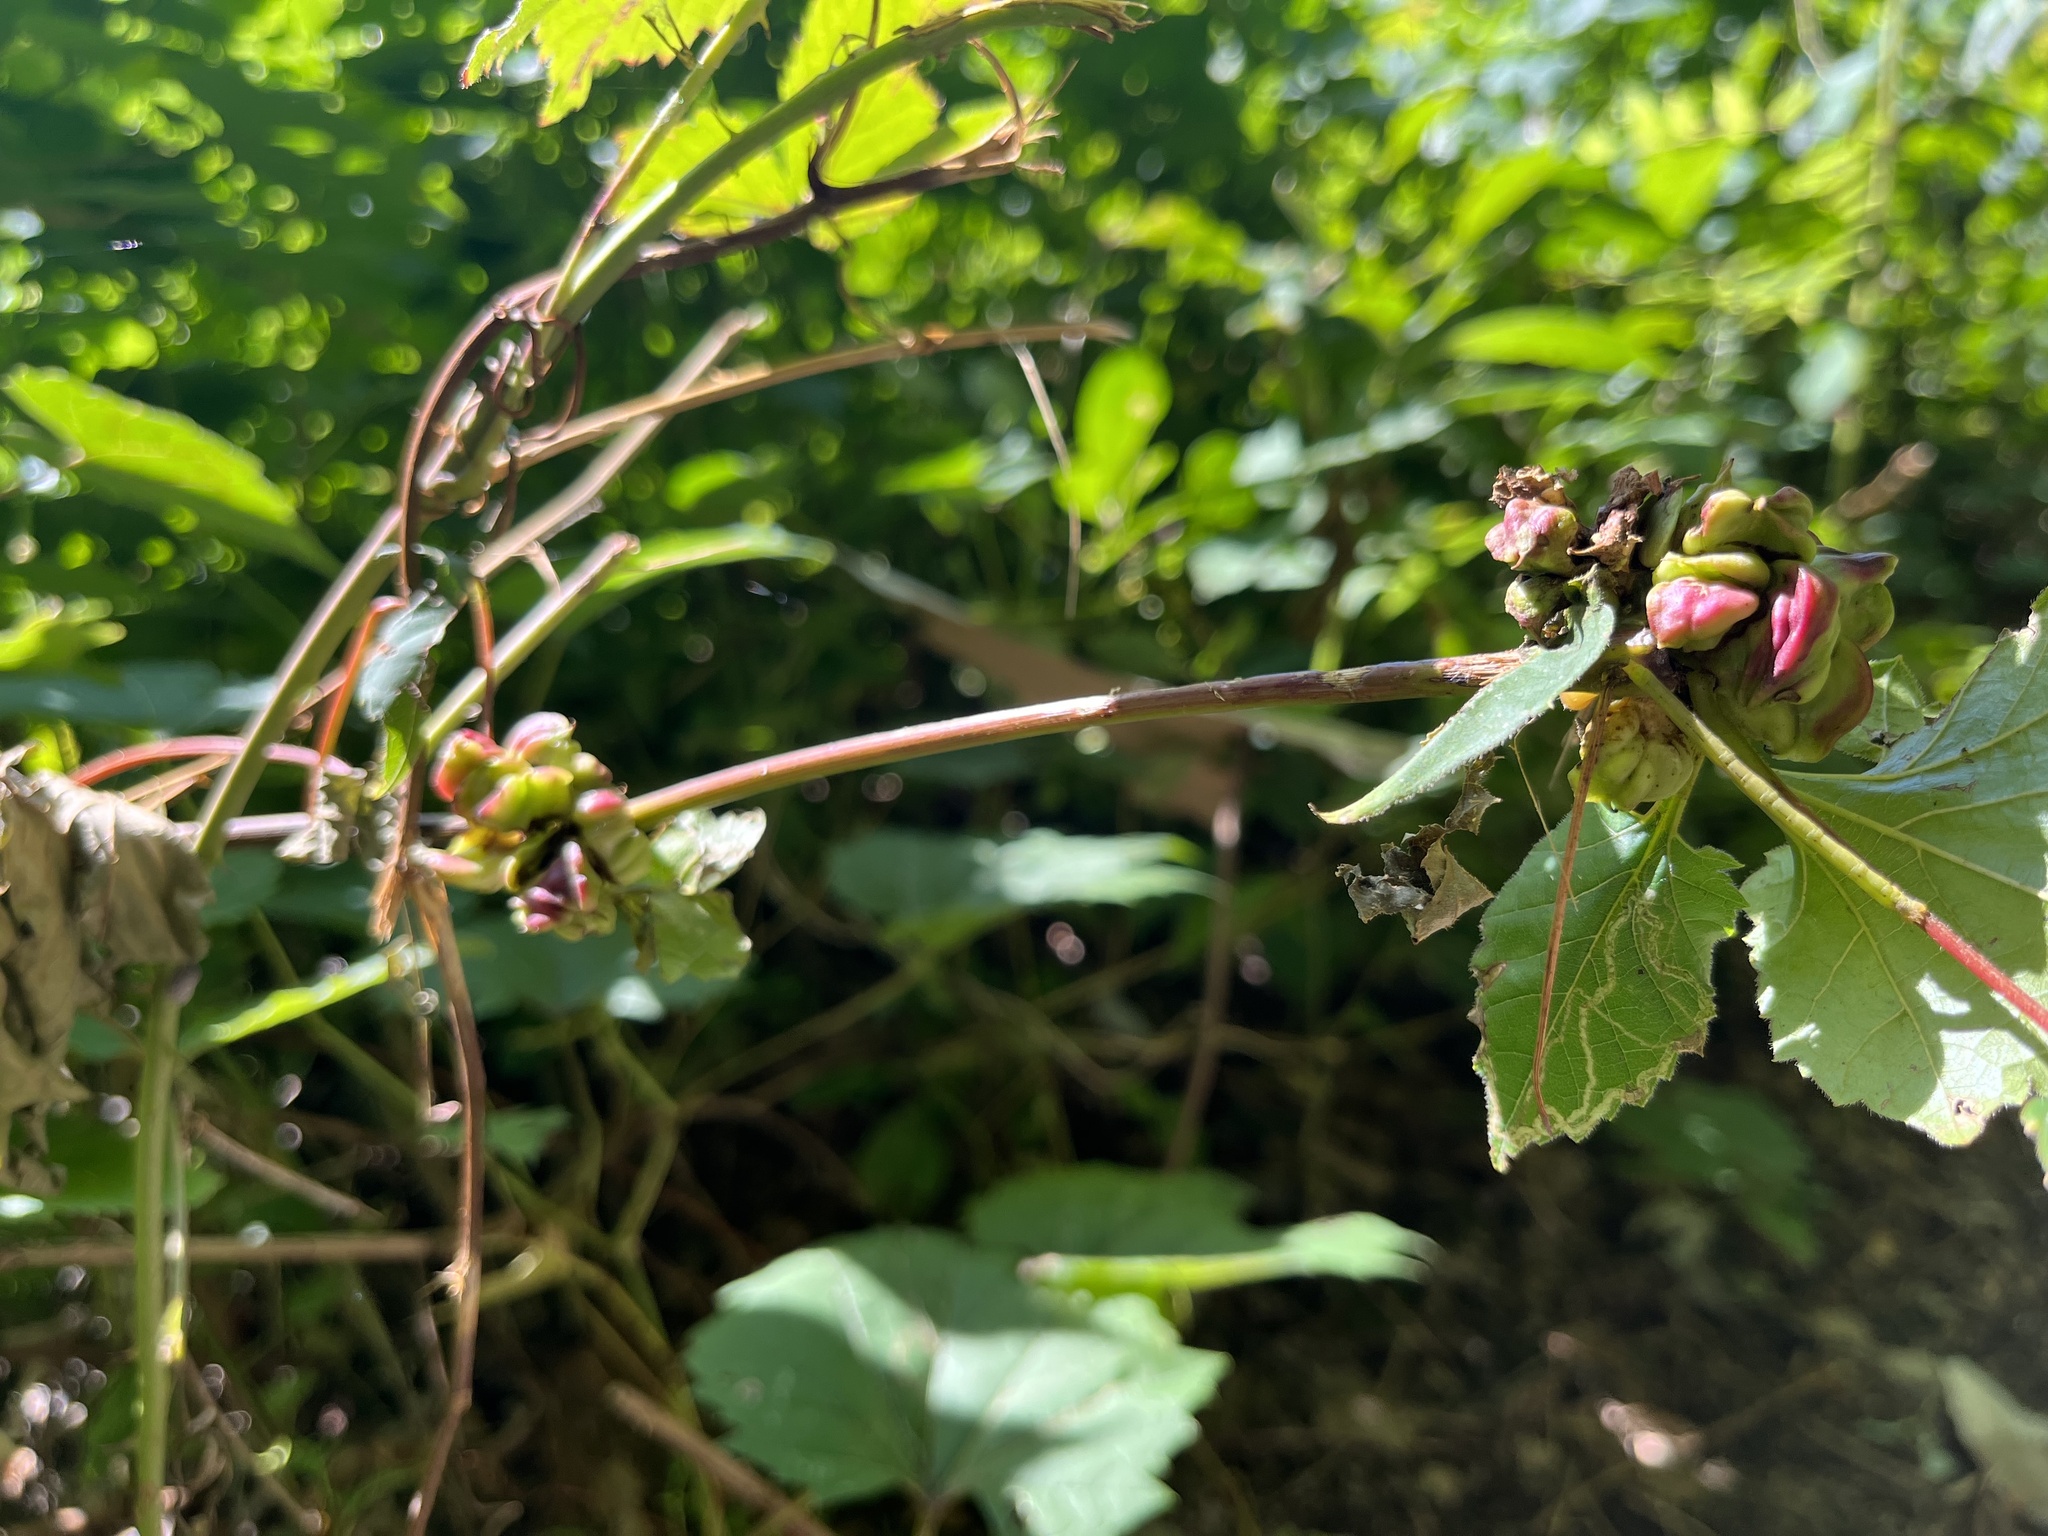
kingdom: Animalia
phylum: Arthropoda
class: Insecta
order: Diptera
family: Cecidomyiidae
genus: Ampelomyia
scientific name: Ampelomyia vitiscoryloides
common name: Grape filbert gall
